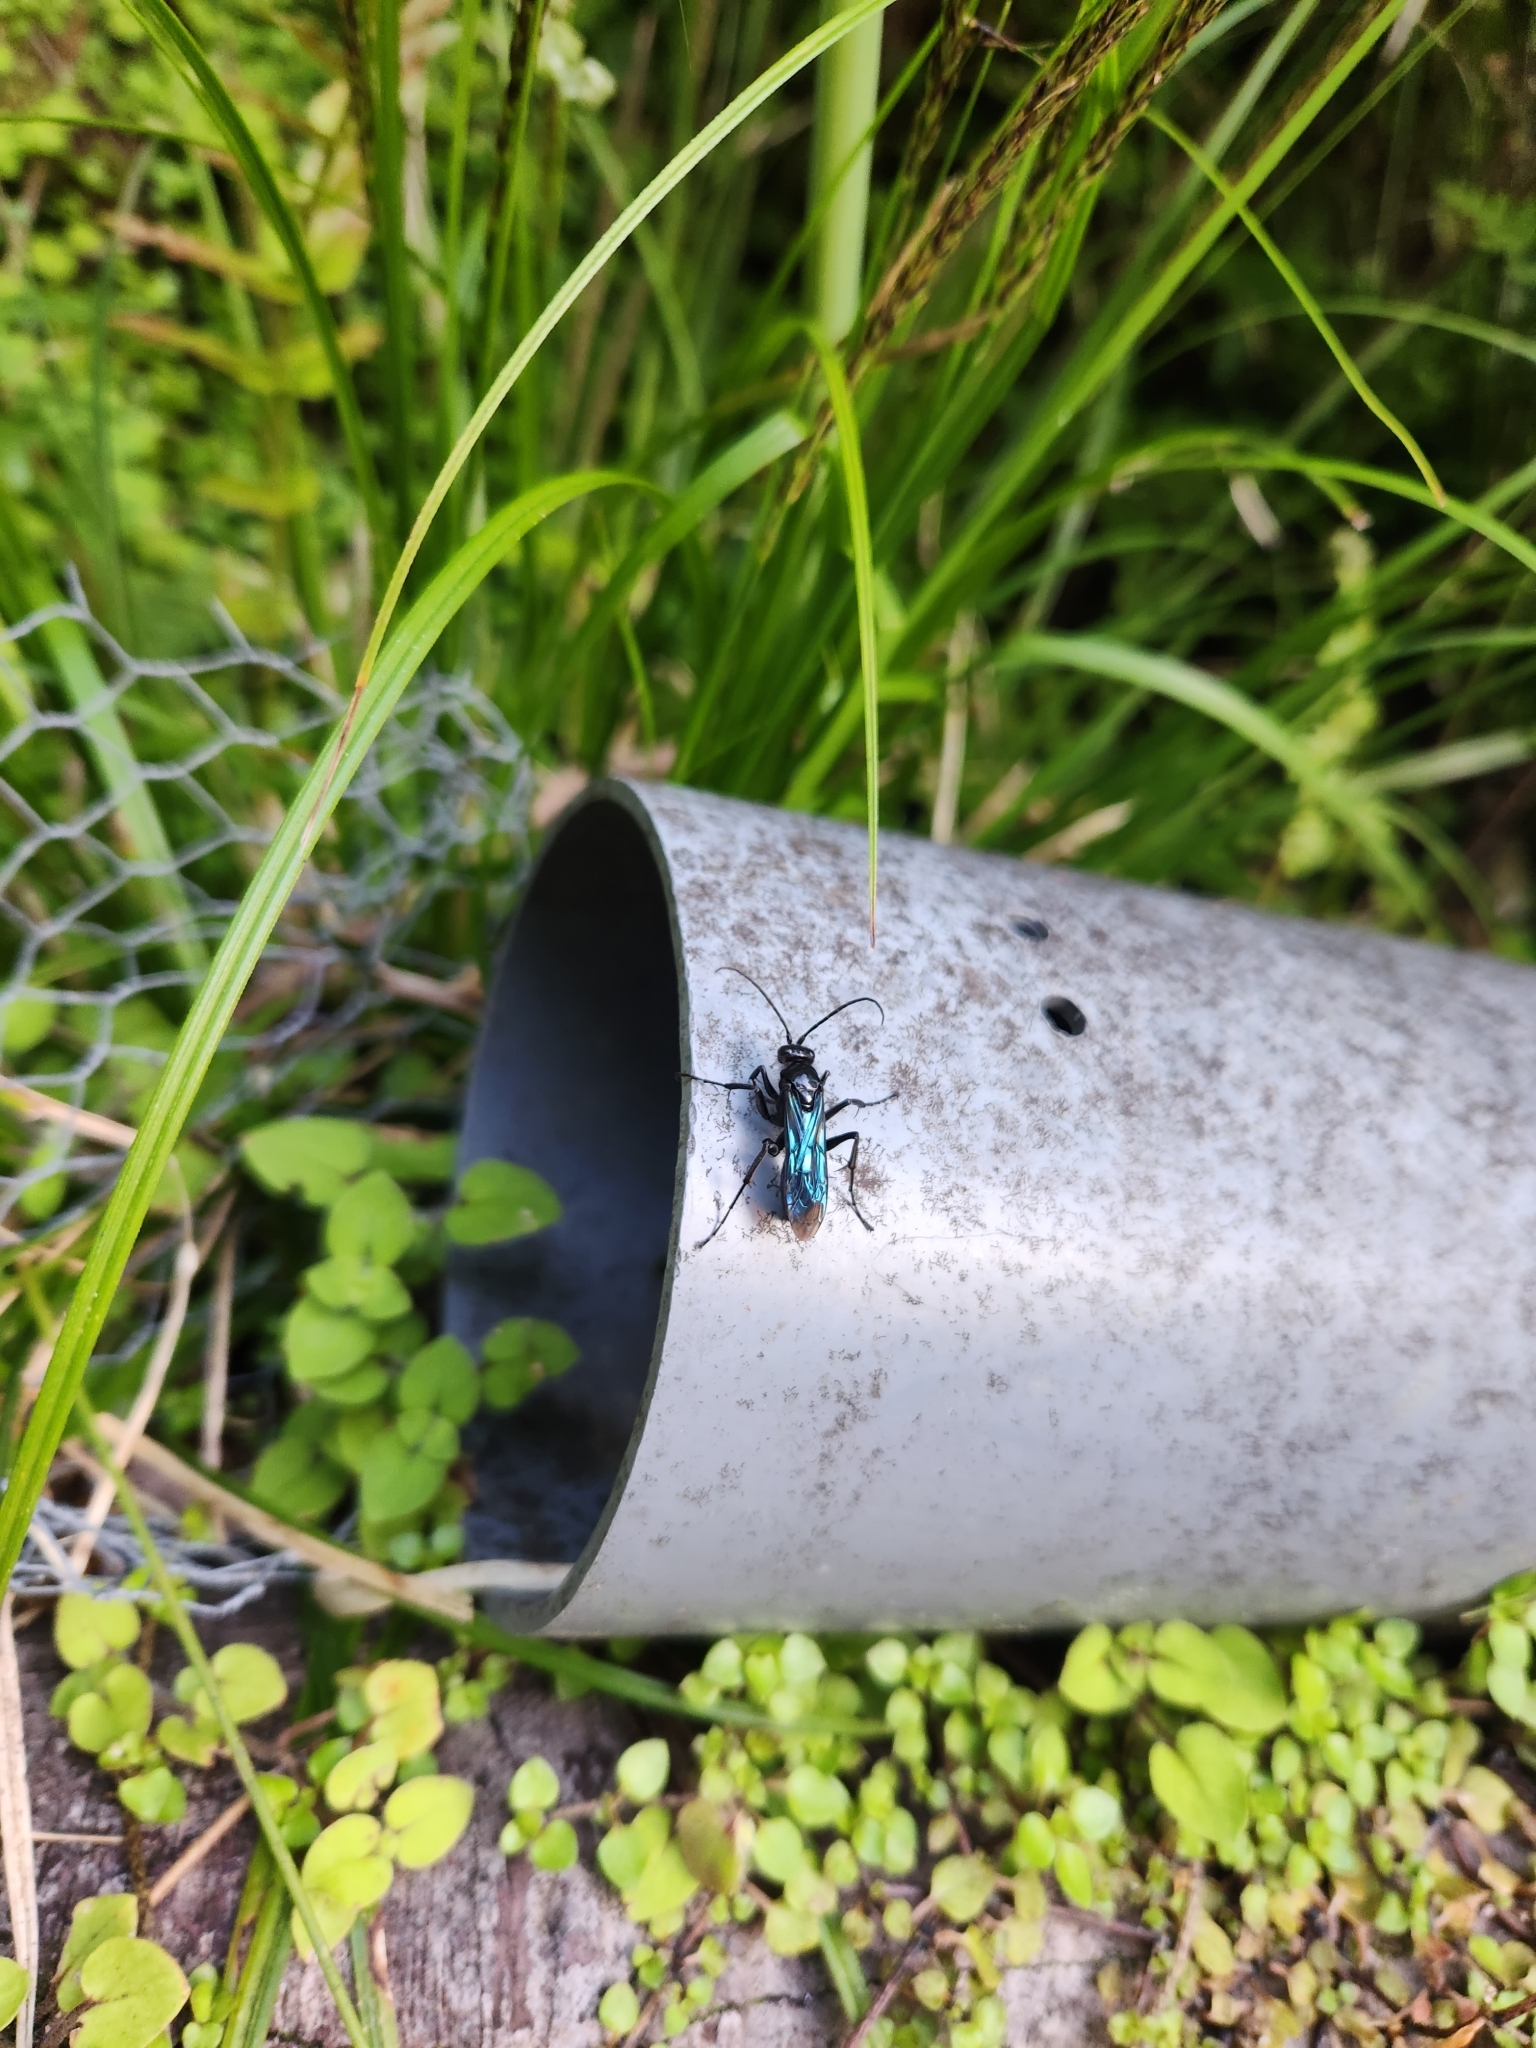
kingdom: Animalia
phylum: Arthropoda
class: Insecta
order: Hymenoptera
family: Pompilidae
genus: Priocnemis
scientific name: Priocnemis monachus
